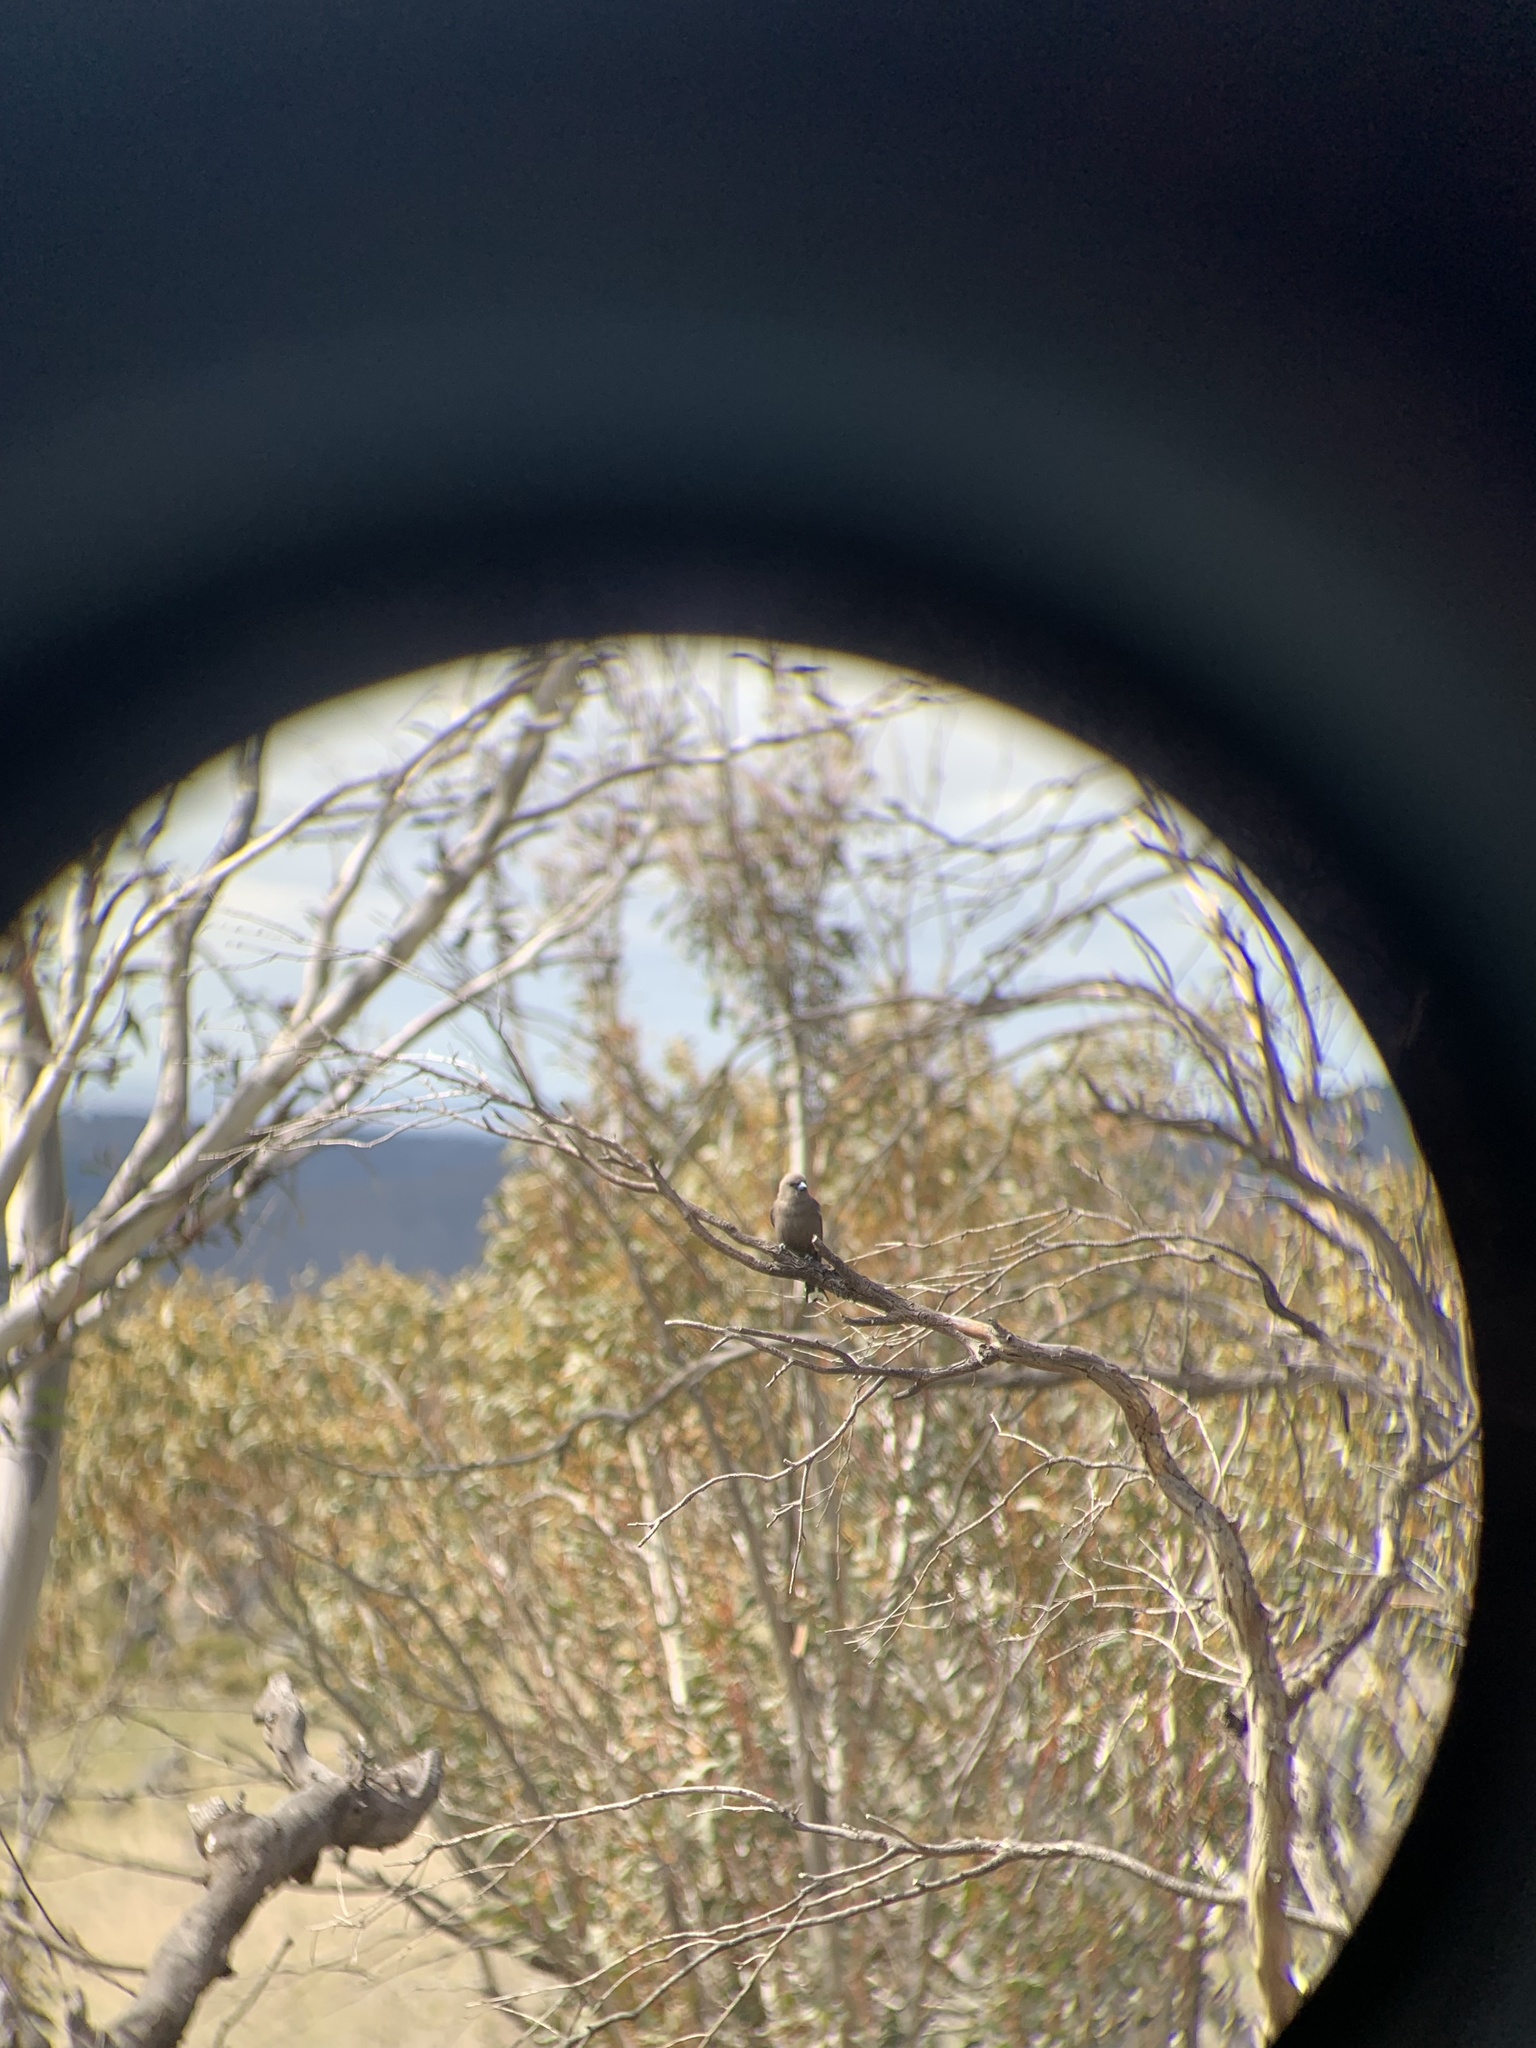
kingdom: Animalia
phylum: Chordata
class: Aves
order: Passeriformes
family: Artamidae
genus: Artamus
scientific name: Artamus cyanopterus
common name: Dusky woodswallow
